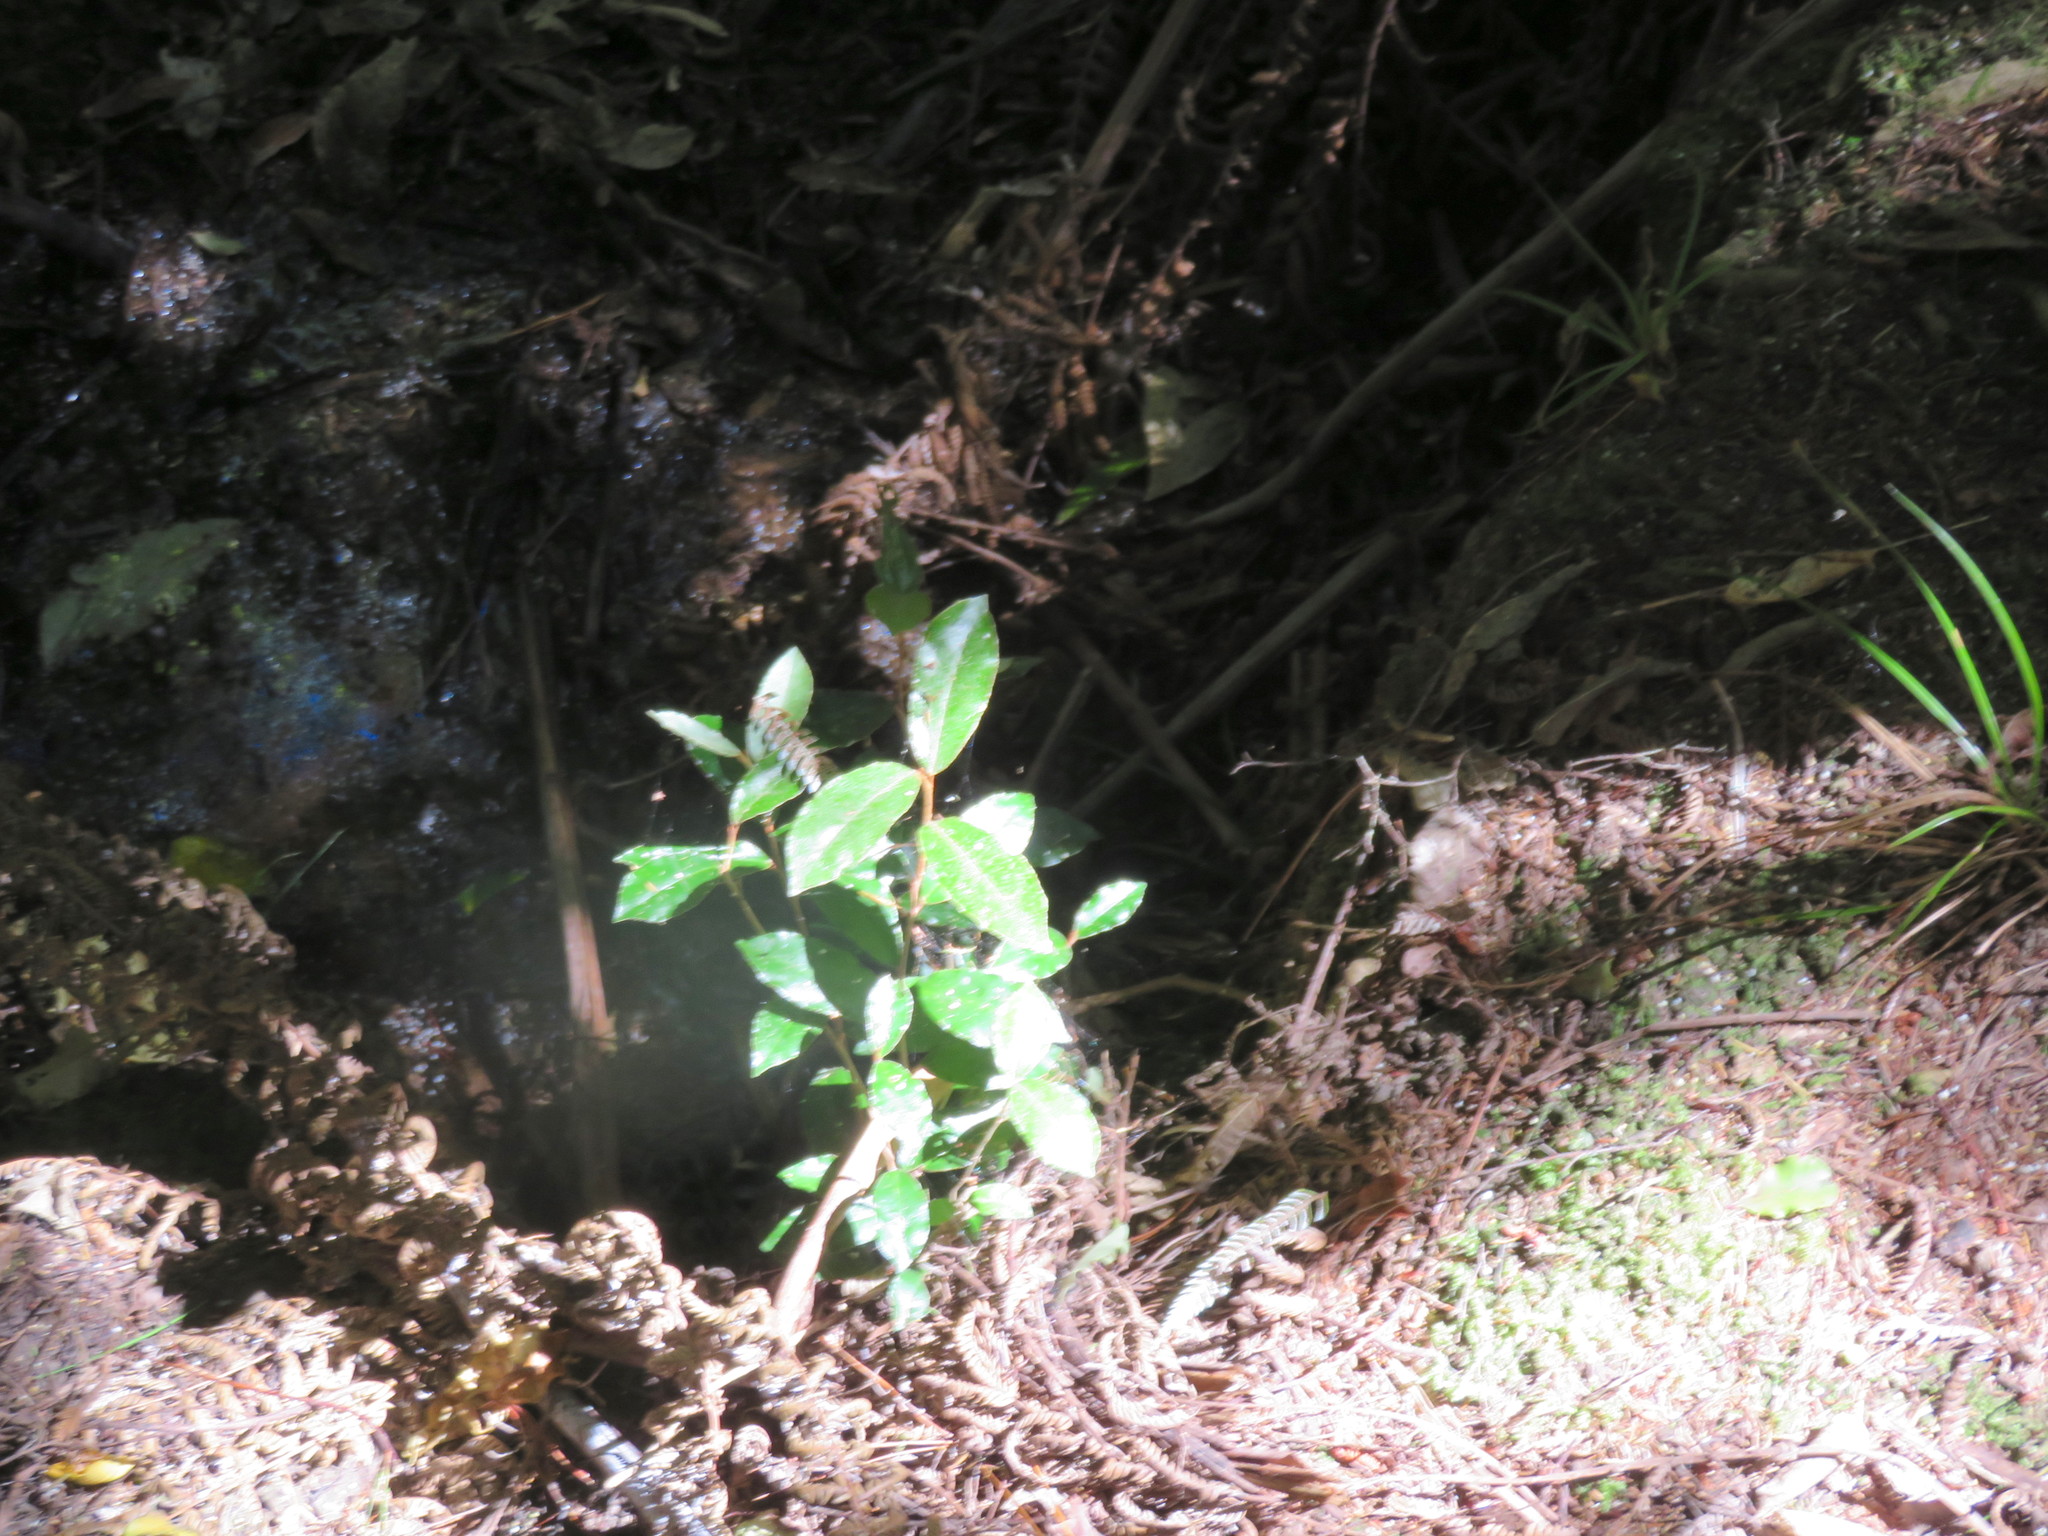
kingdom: Plantae
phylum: Tracheophyta
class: Magnoliopsida
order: Rosales
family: Elaeagnaceae
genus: Elaeagnus
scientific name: Elaeagnus reflexa
